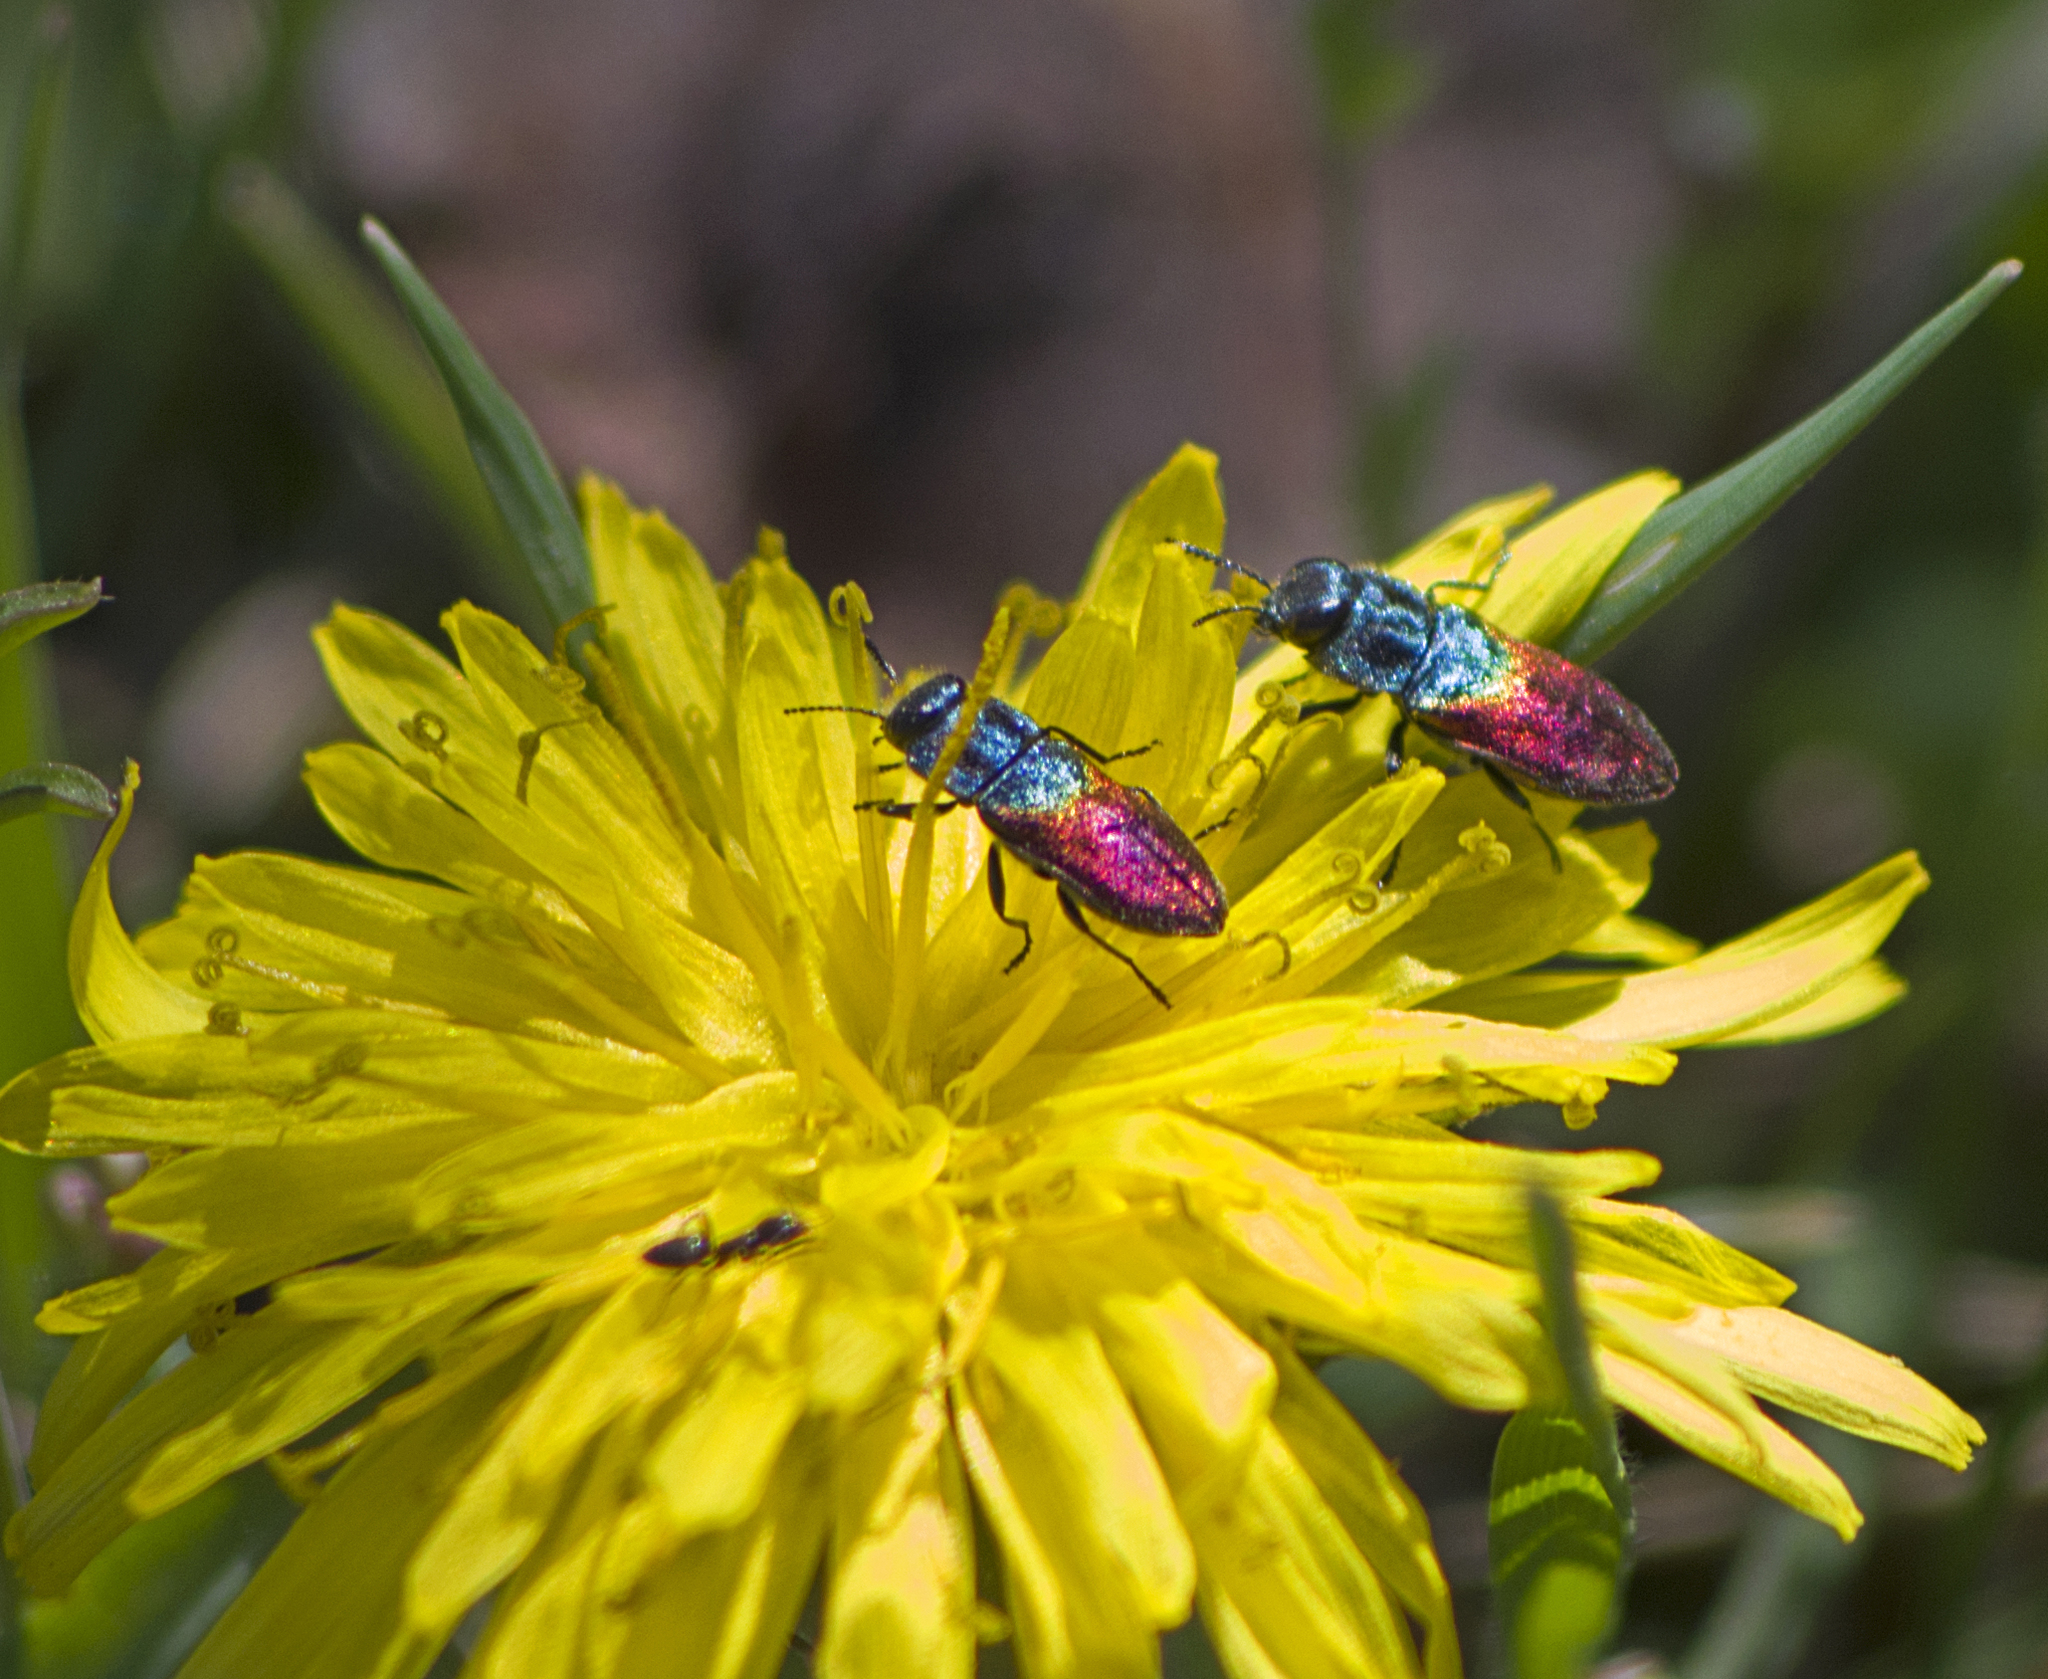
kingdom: Animalia
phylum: Arthropoda
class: Insecta
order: Coleoptera
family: Buprestidae
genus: Anthaxia
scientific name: Anthaxia salicis
